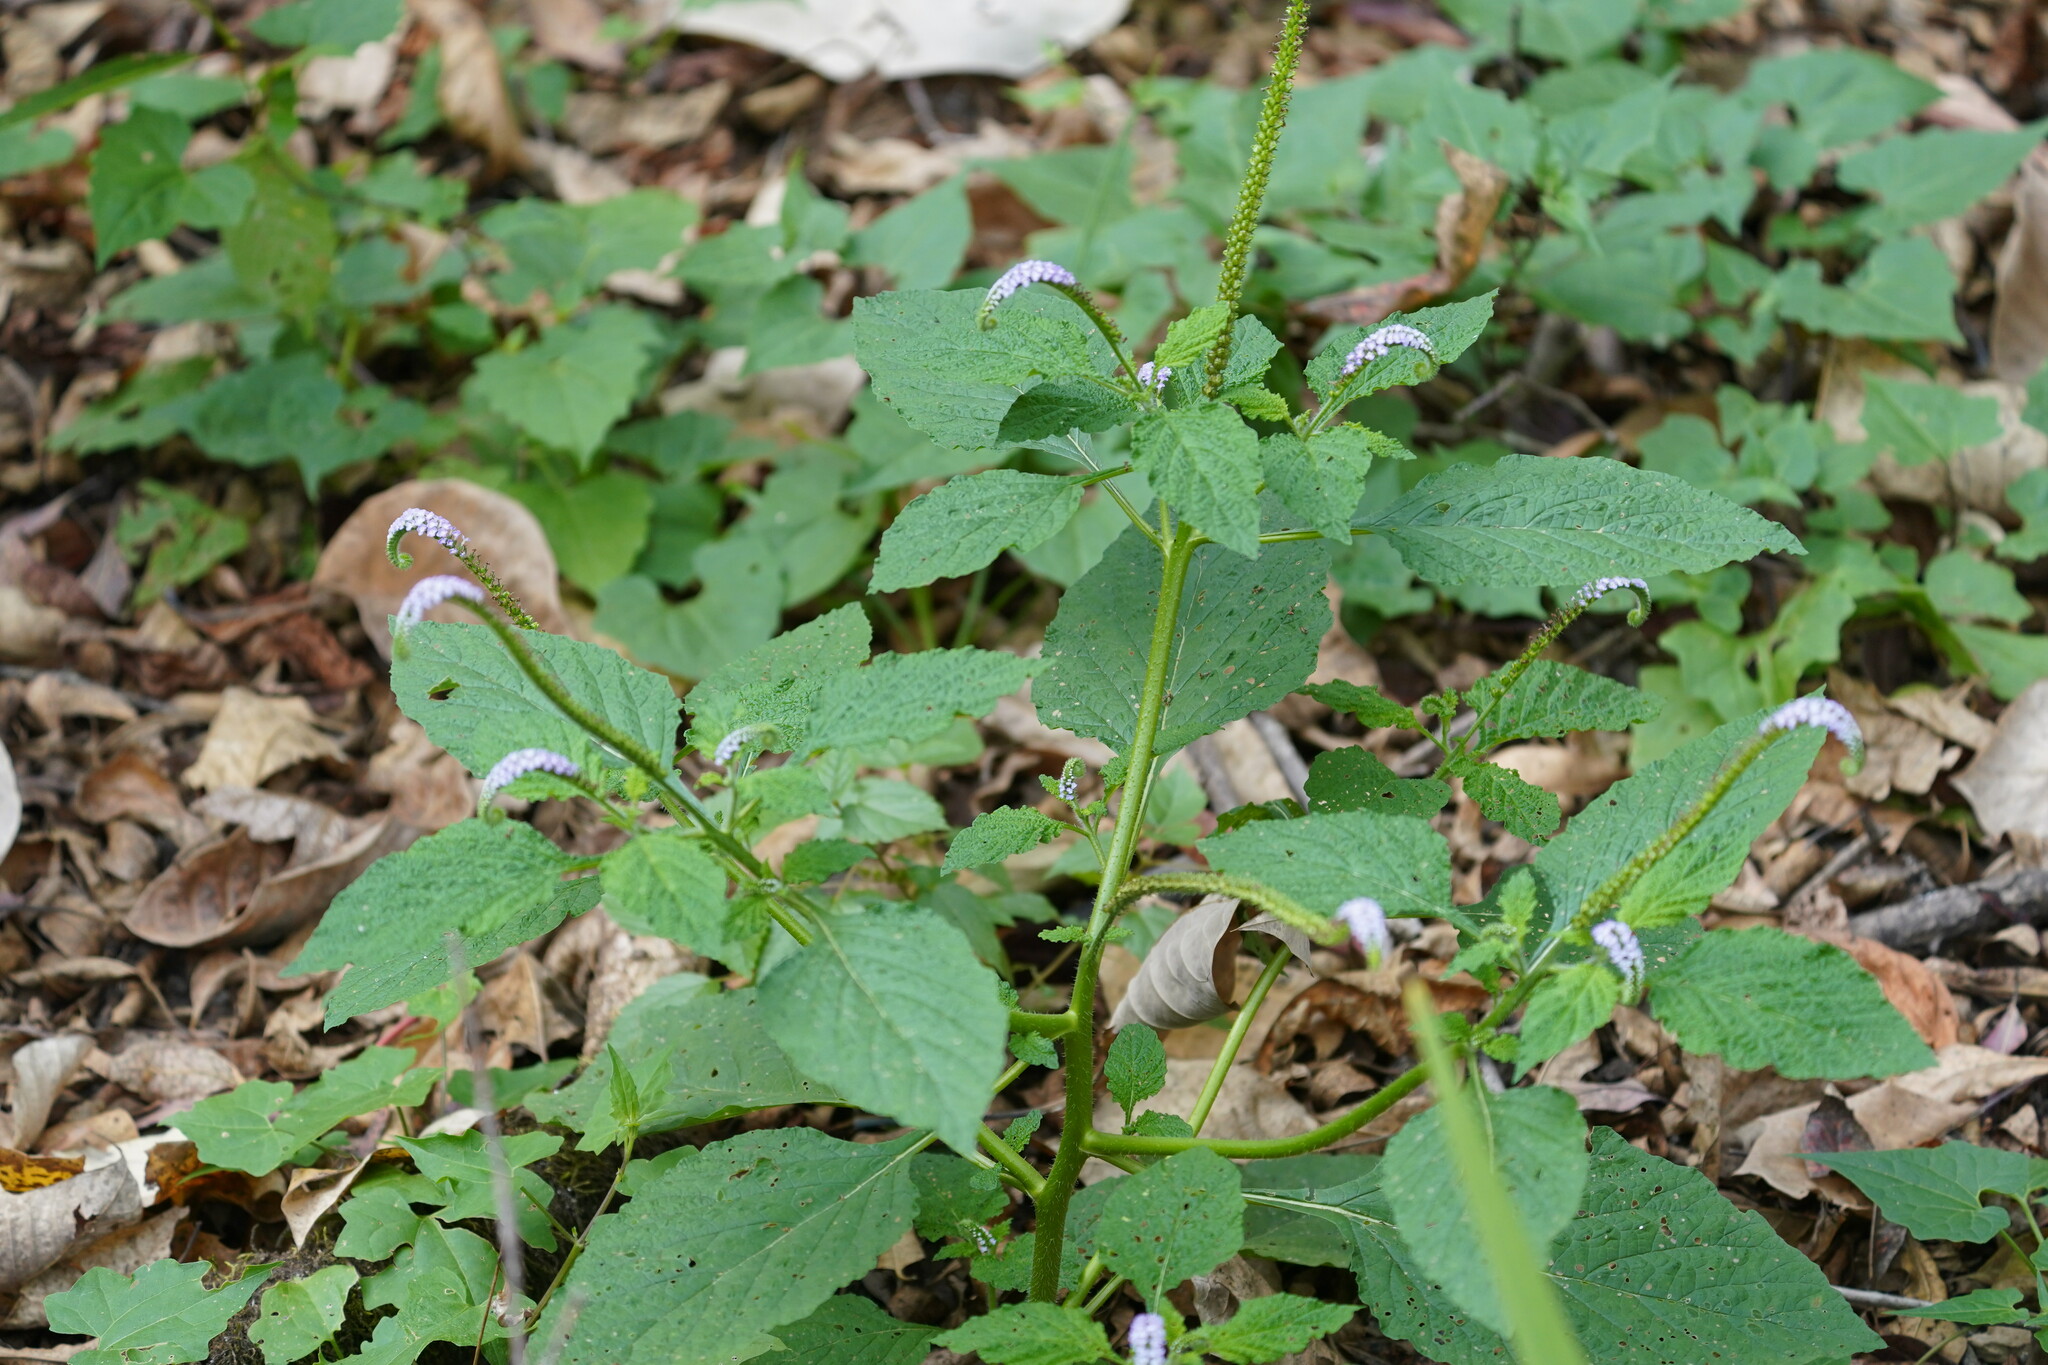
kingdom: Plantae
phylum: Tracheophyta
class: Magnoliopsida
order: Boraginales
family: Heliotropiaceae
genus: Heliotropium
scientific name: Heliotropium indicum
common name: Indian heliotrope
